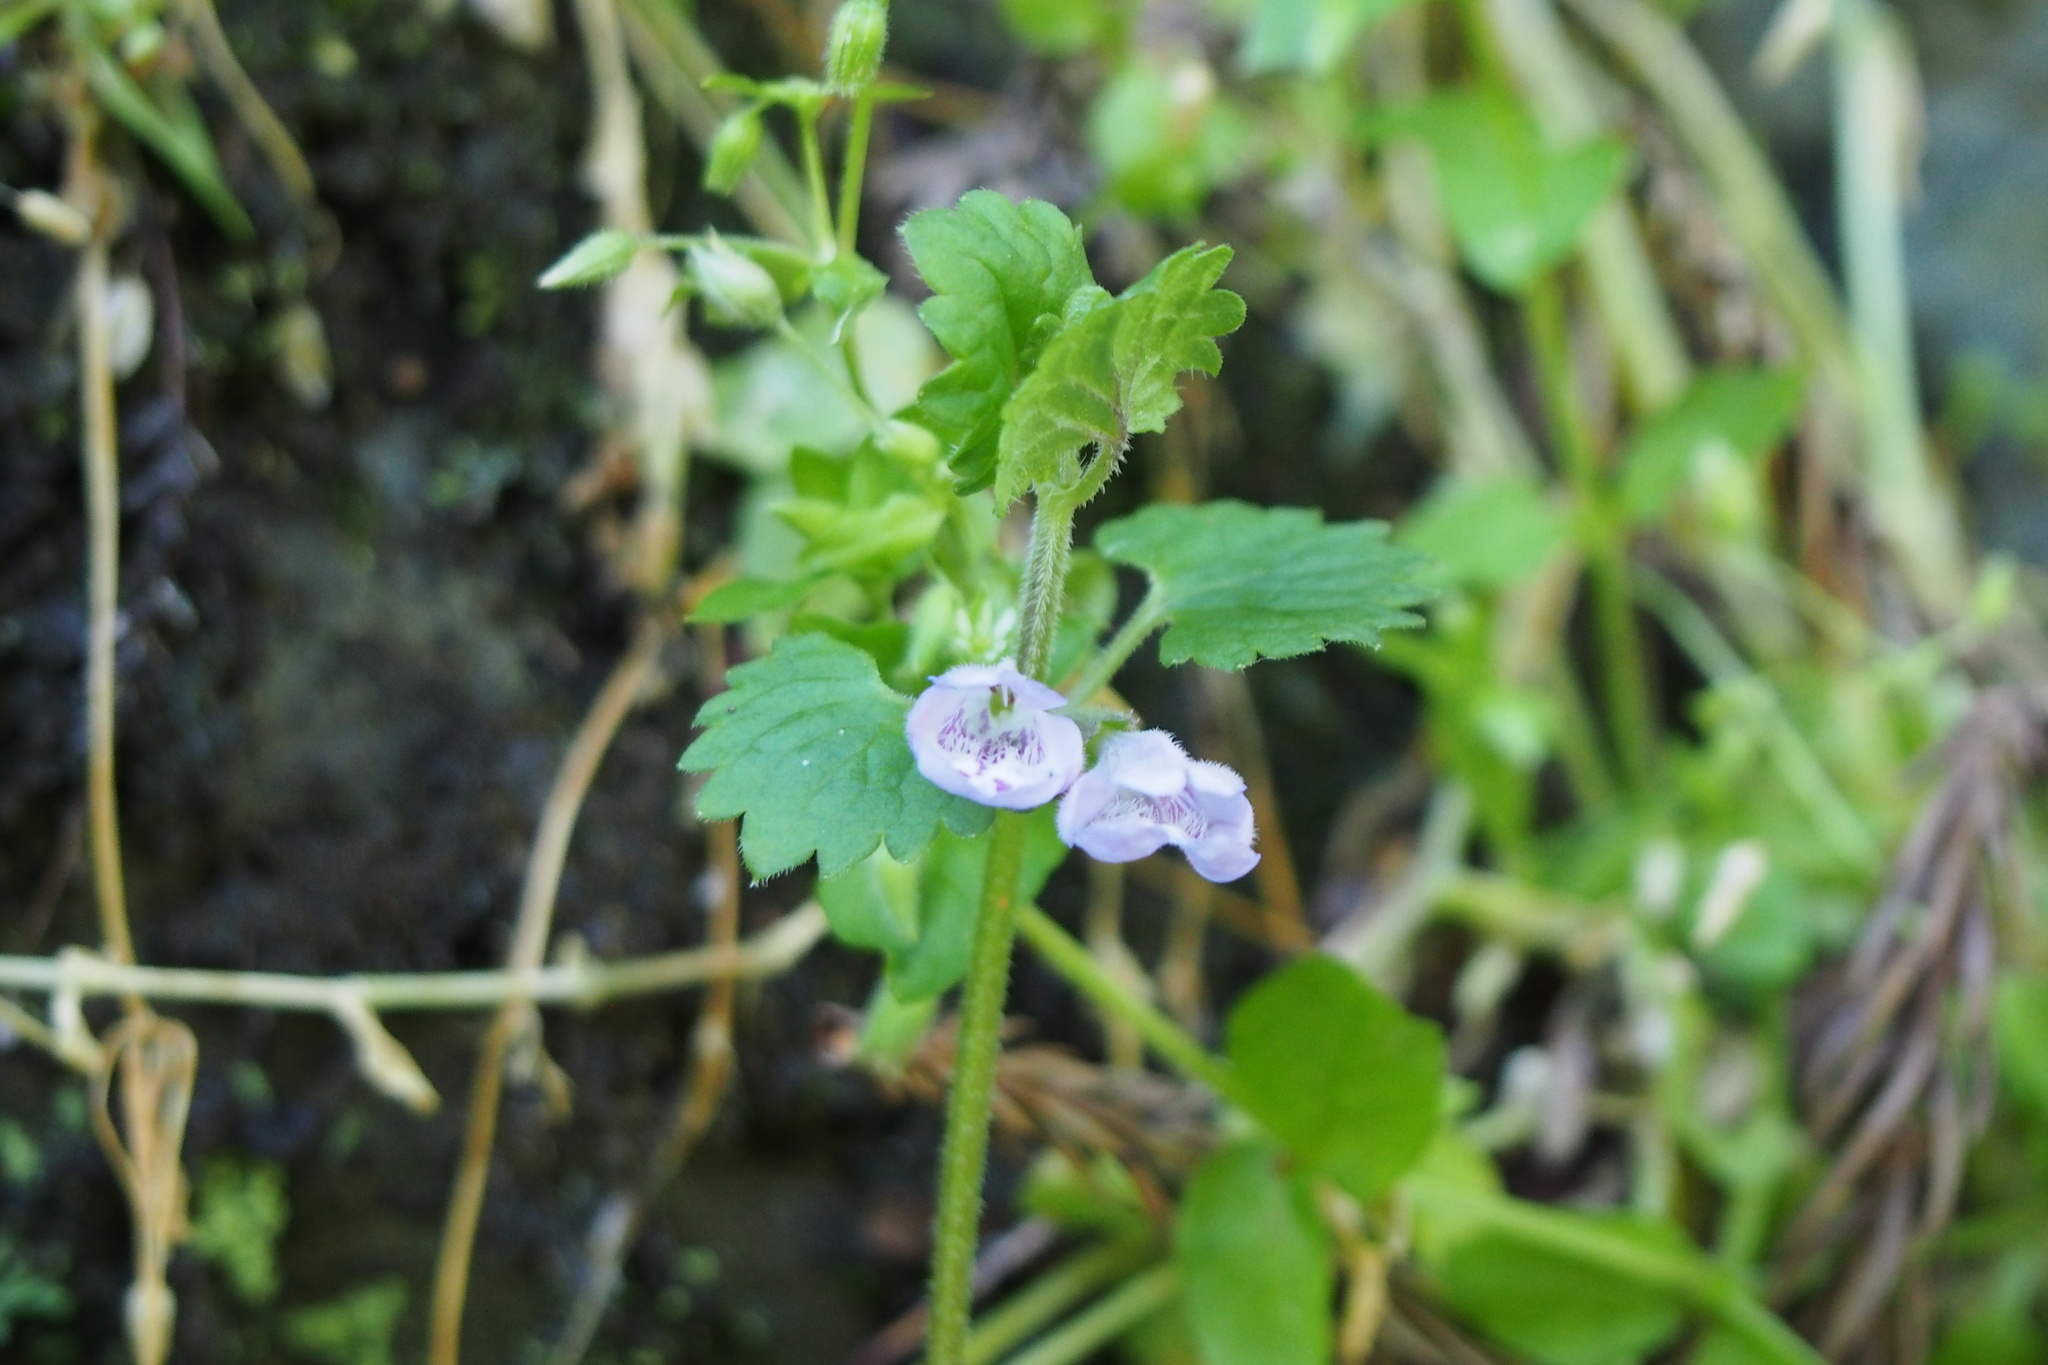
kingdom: Plantae
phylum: Tracheophyta
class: Magnoliopsida
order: Lamiales
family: Lamiaceae
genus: Glechoma
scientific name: Glechoma grandis
